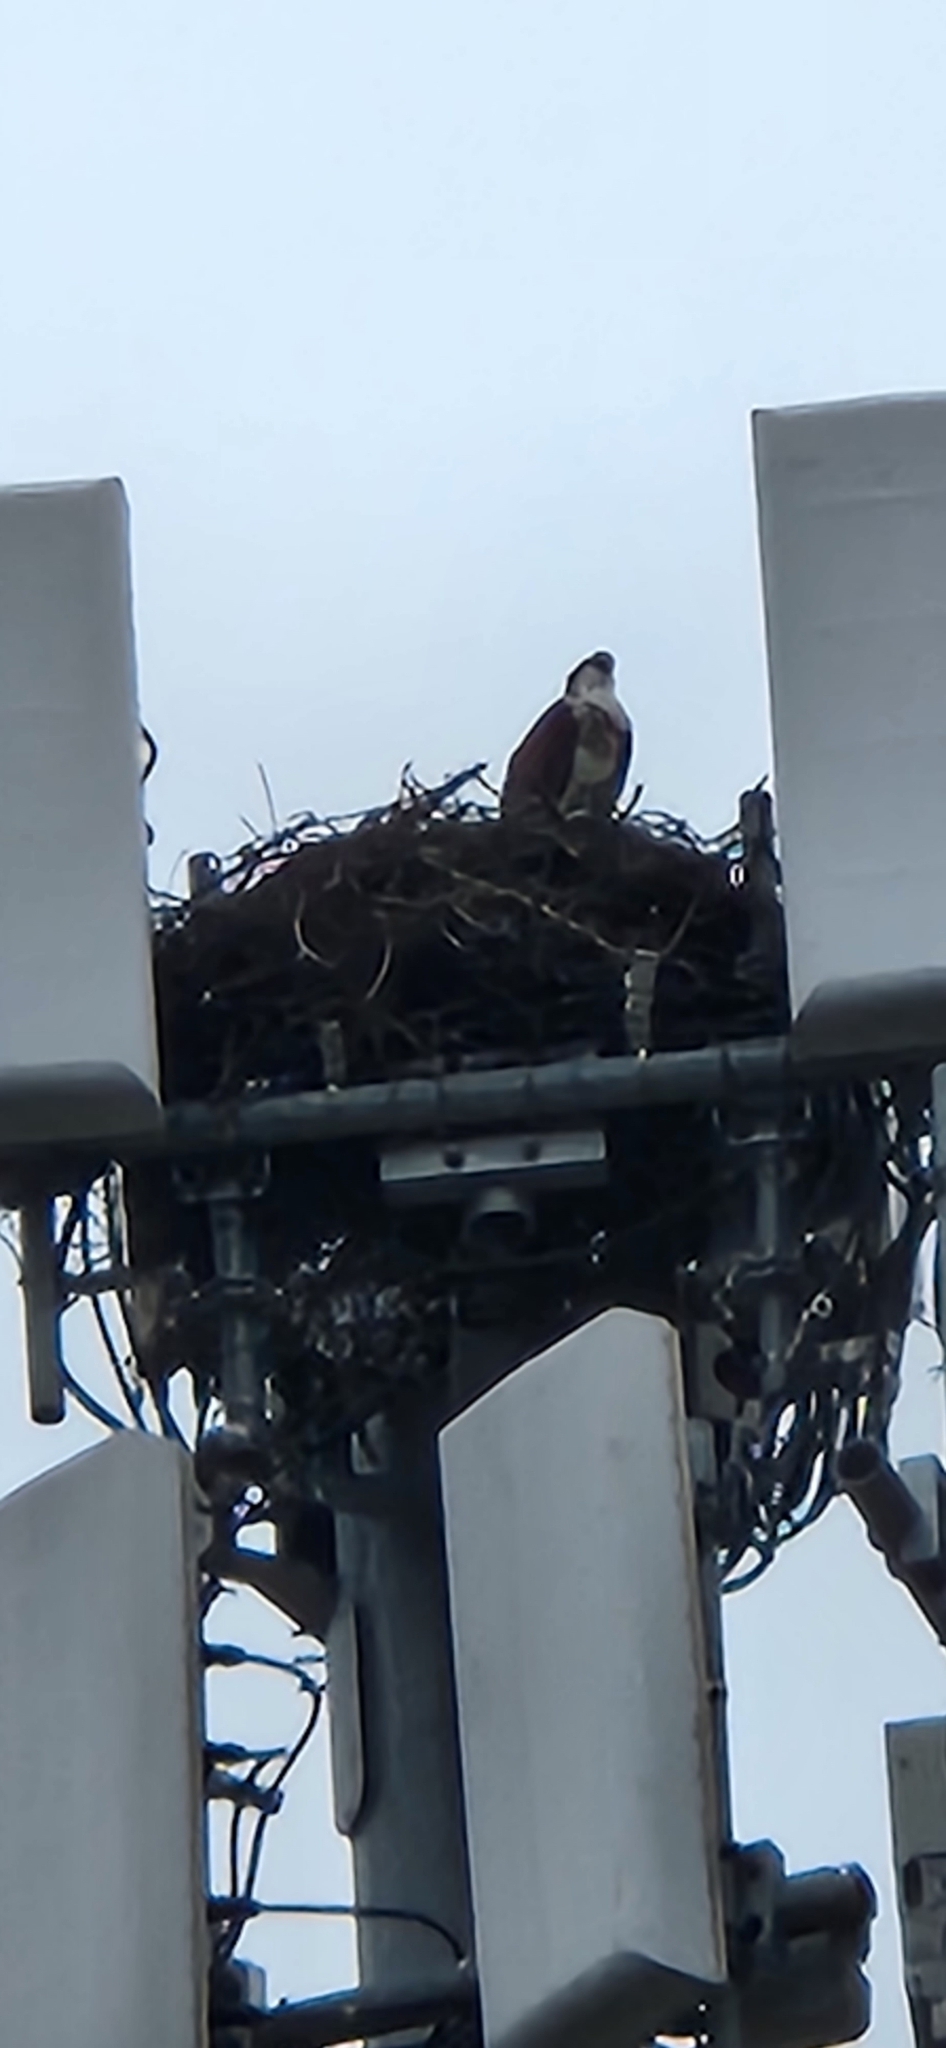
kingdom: Animalia
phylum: Chordata
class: Aves
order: Accipitriformes
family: Pandionidae
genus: Pandion
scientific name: Pandion haliaetus
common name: Osprey
